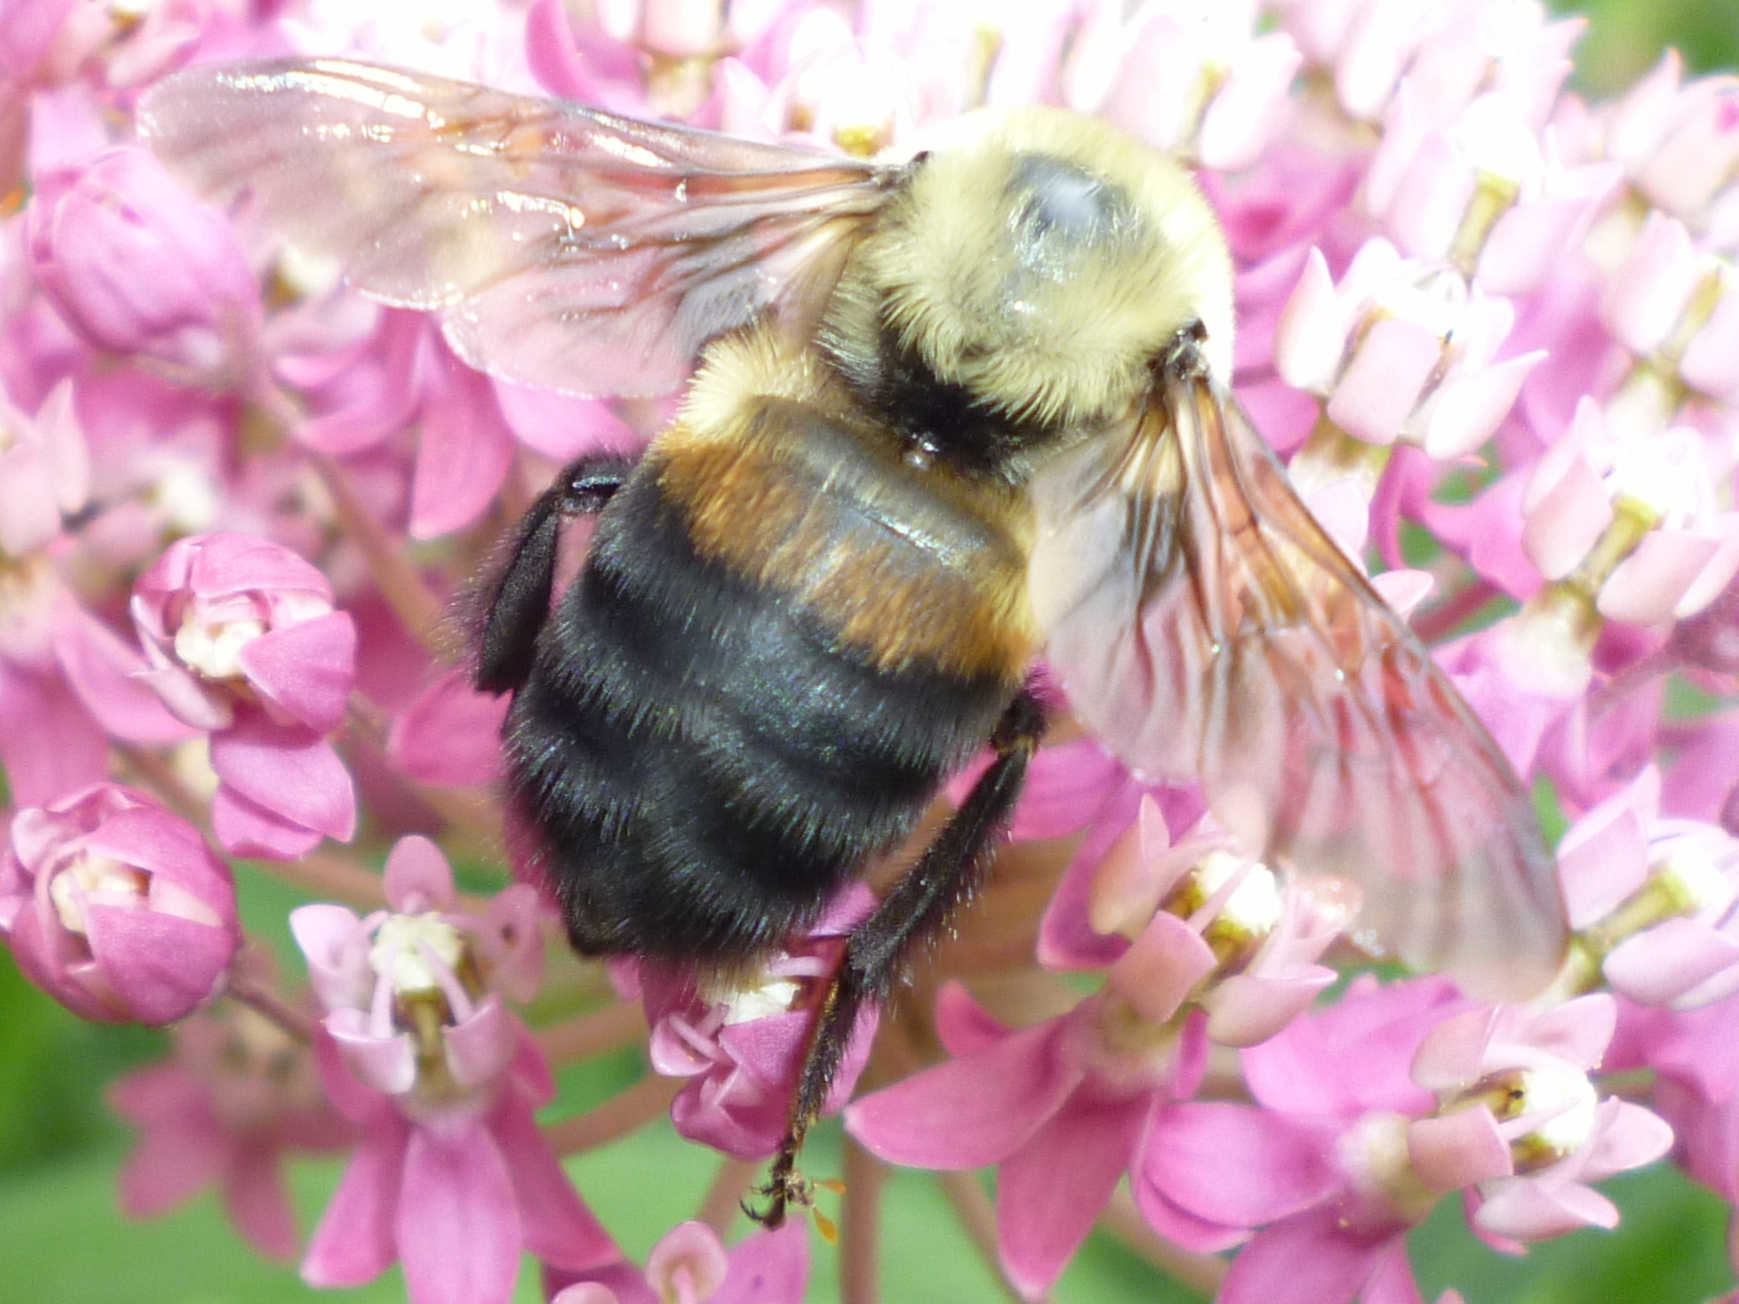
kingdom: Animalia
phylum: Arthropoda
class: Insecta
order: Hymenoptera
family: Apidae
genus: Bombus
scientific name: Bombus griseocollis
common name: Brown-belted bumble bee
